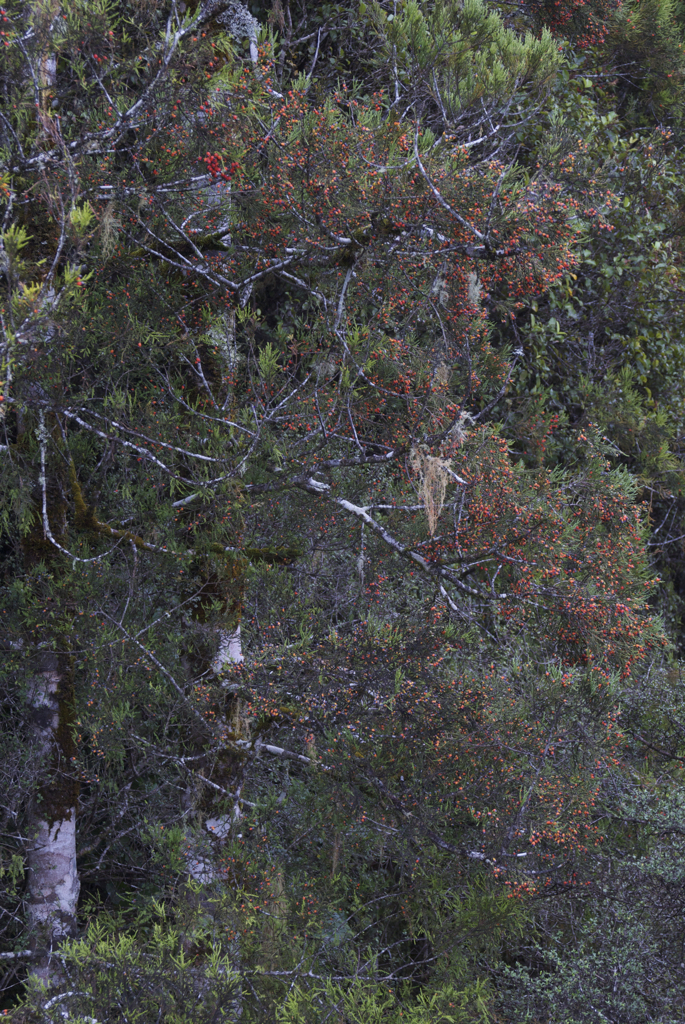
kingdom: Plantae
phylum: Tracheophyta
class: Pinopsida
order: Pinales
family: Podocarpaceae
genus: Dacrycarpus
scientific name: Dacrycarpus dacrydioides
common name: White pine
